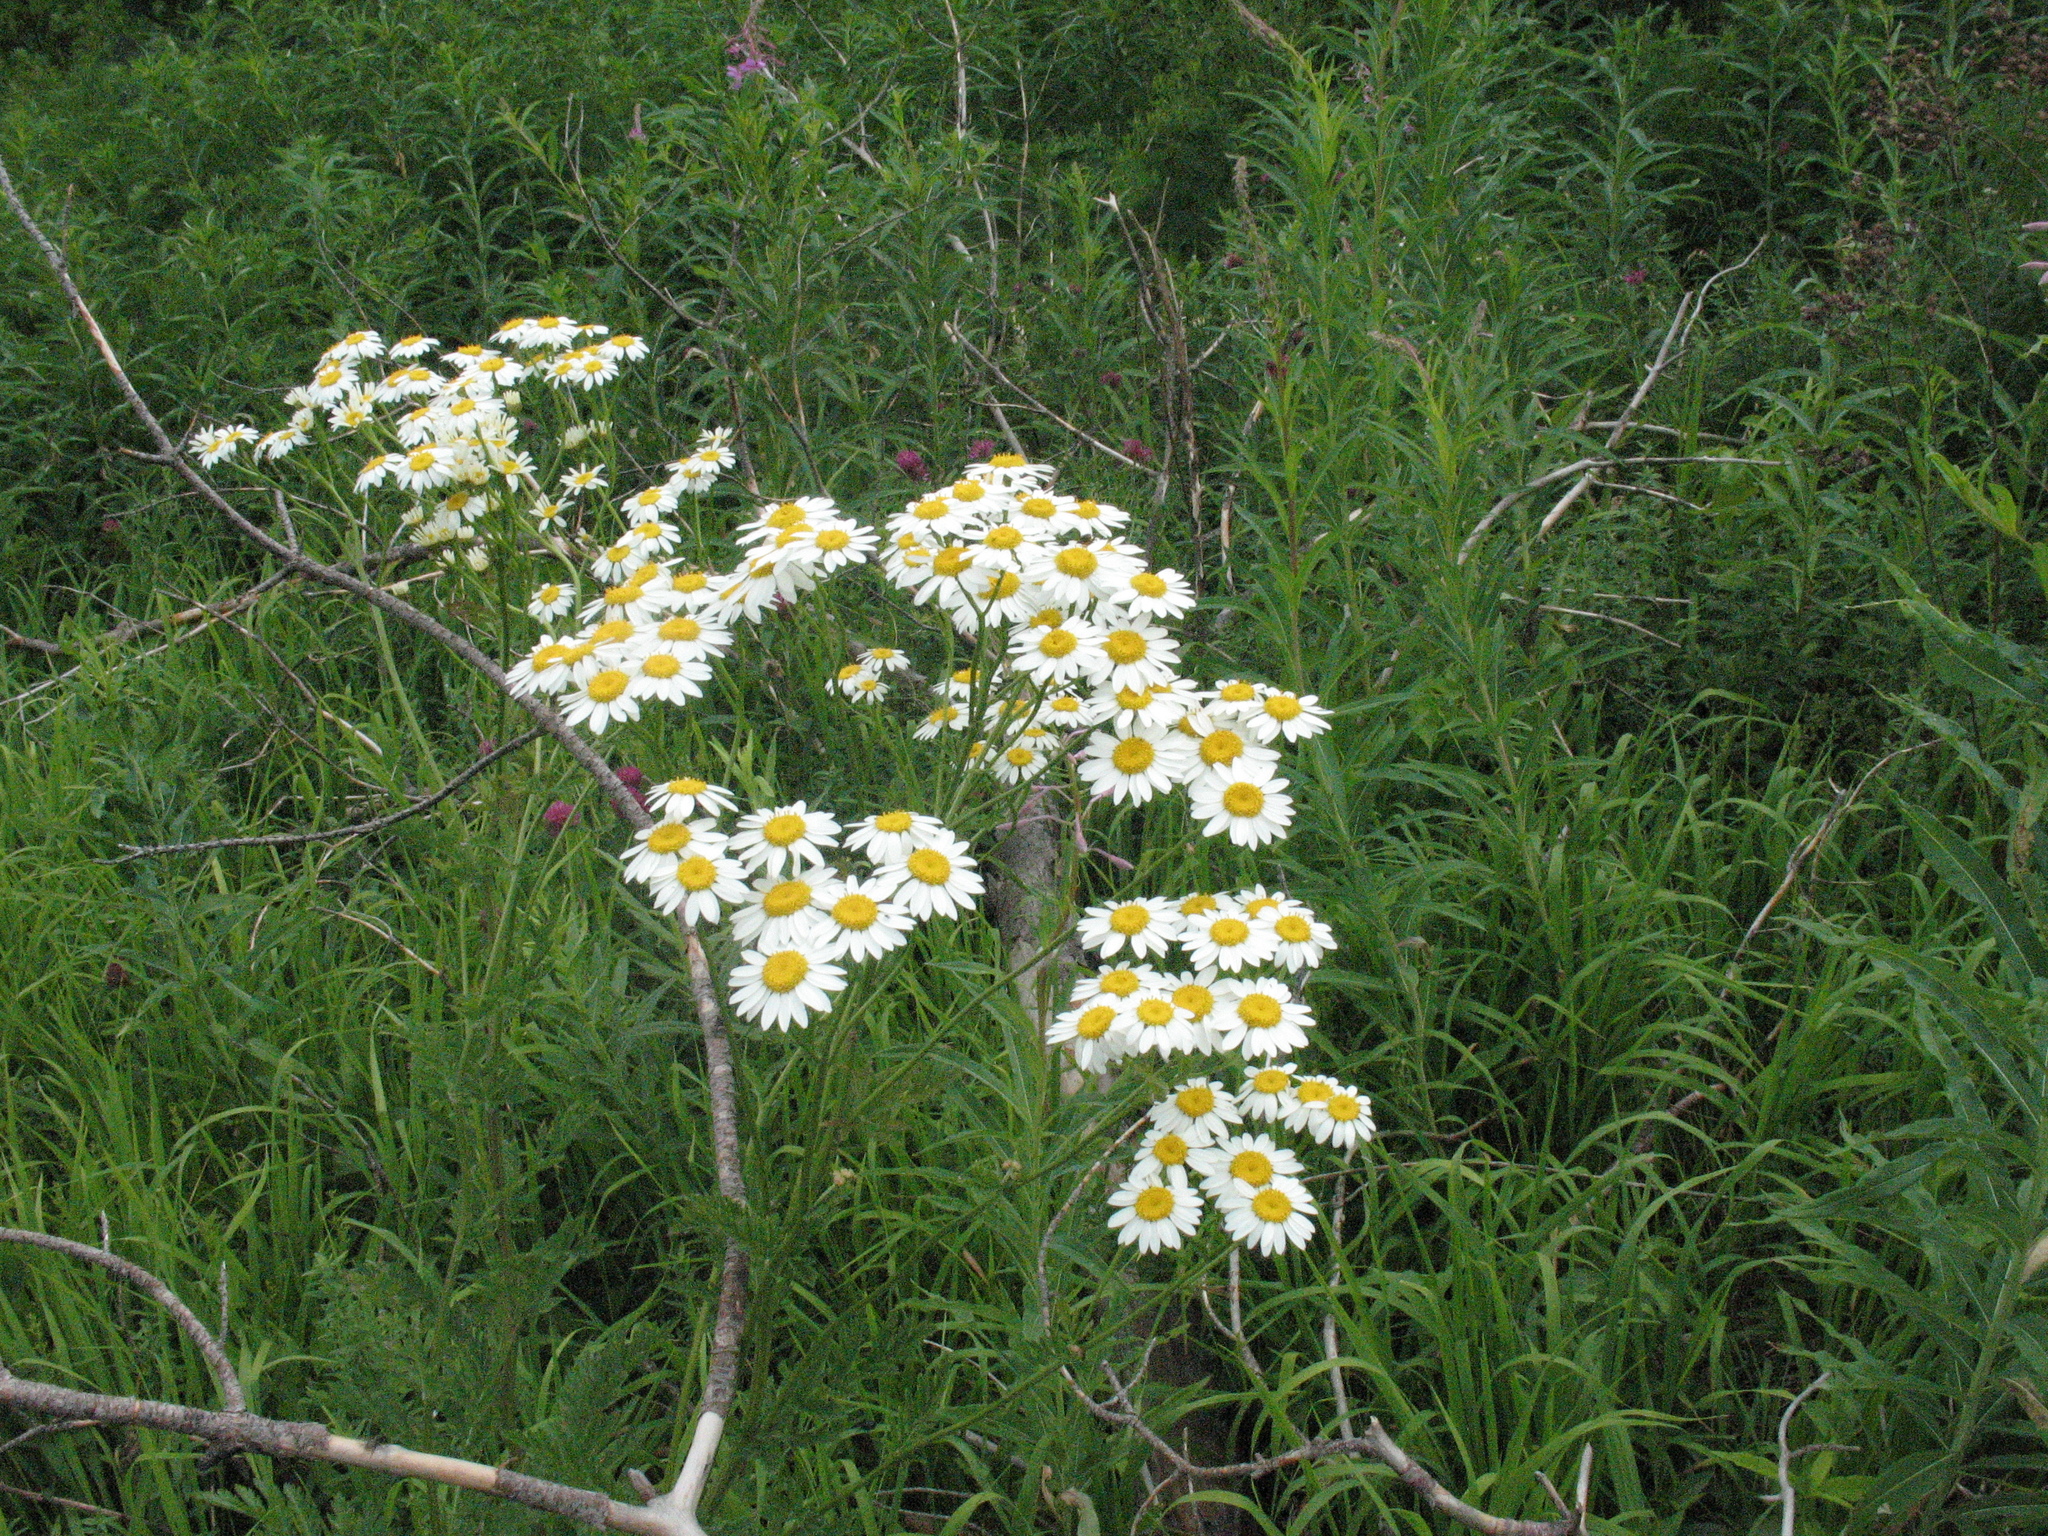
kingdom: Plantae
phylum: Tracheophyta
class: Magnoliopsida
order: Asterales
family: Asteraceae
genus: Tanacetum
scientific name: Tanacetum corymbosum
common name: Scentless feverfew
